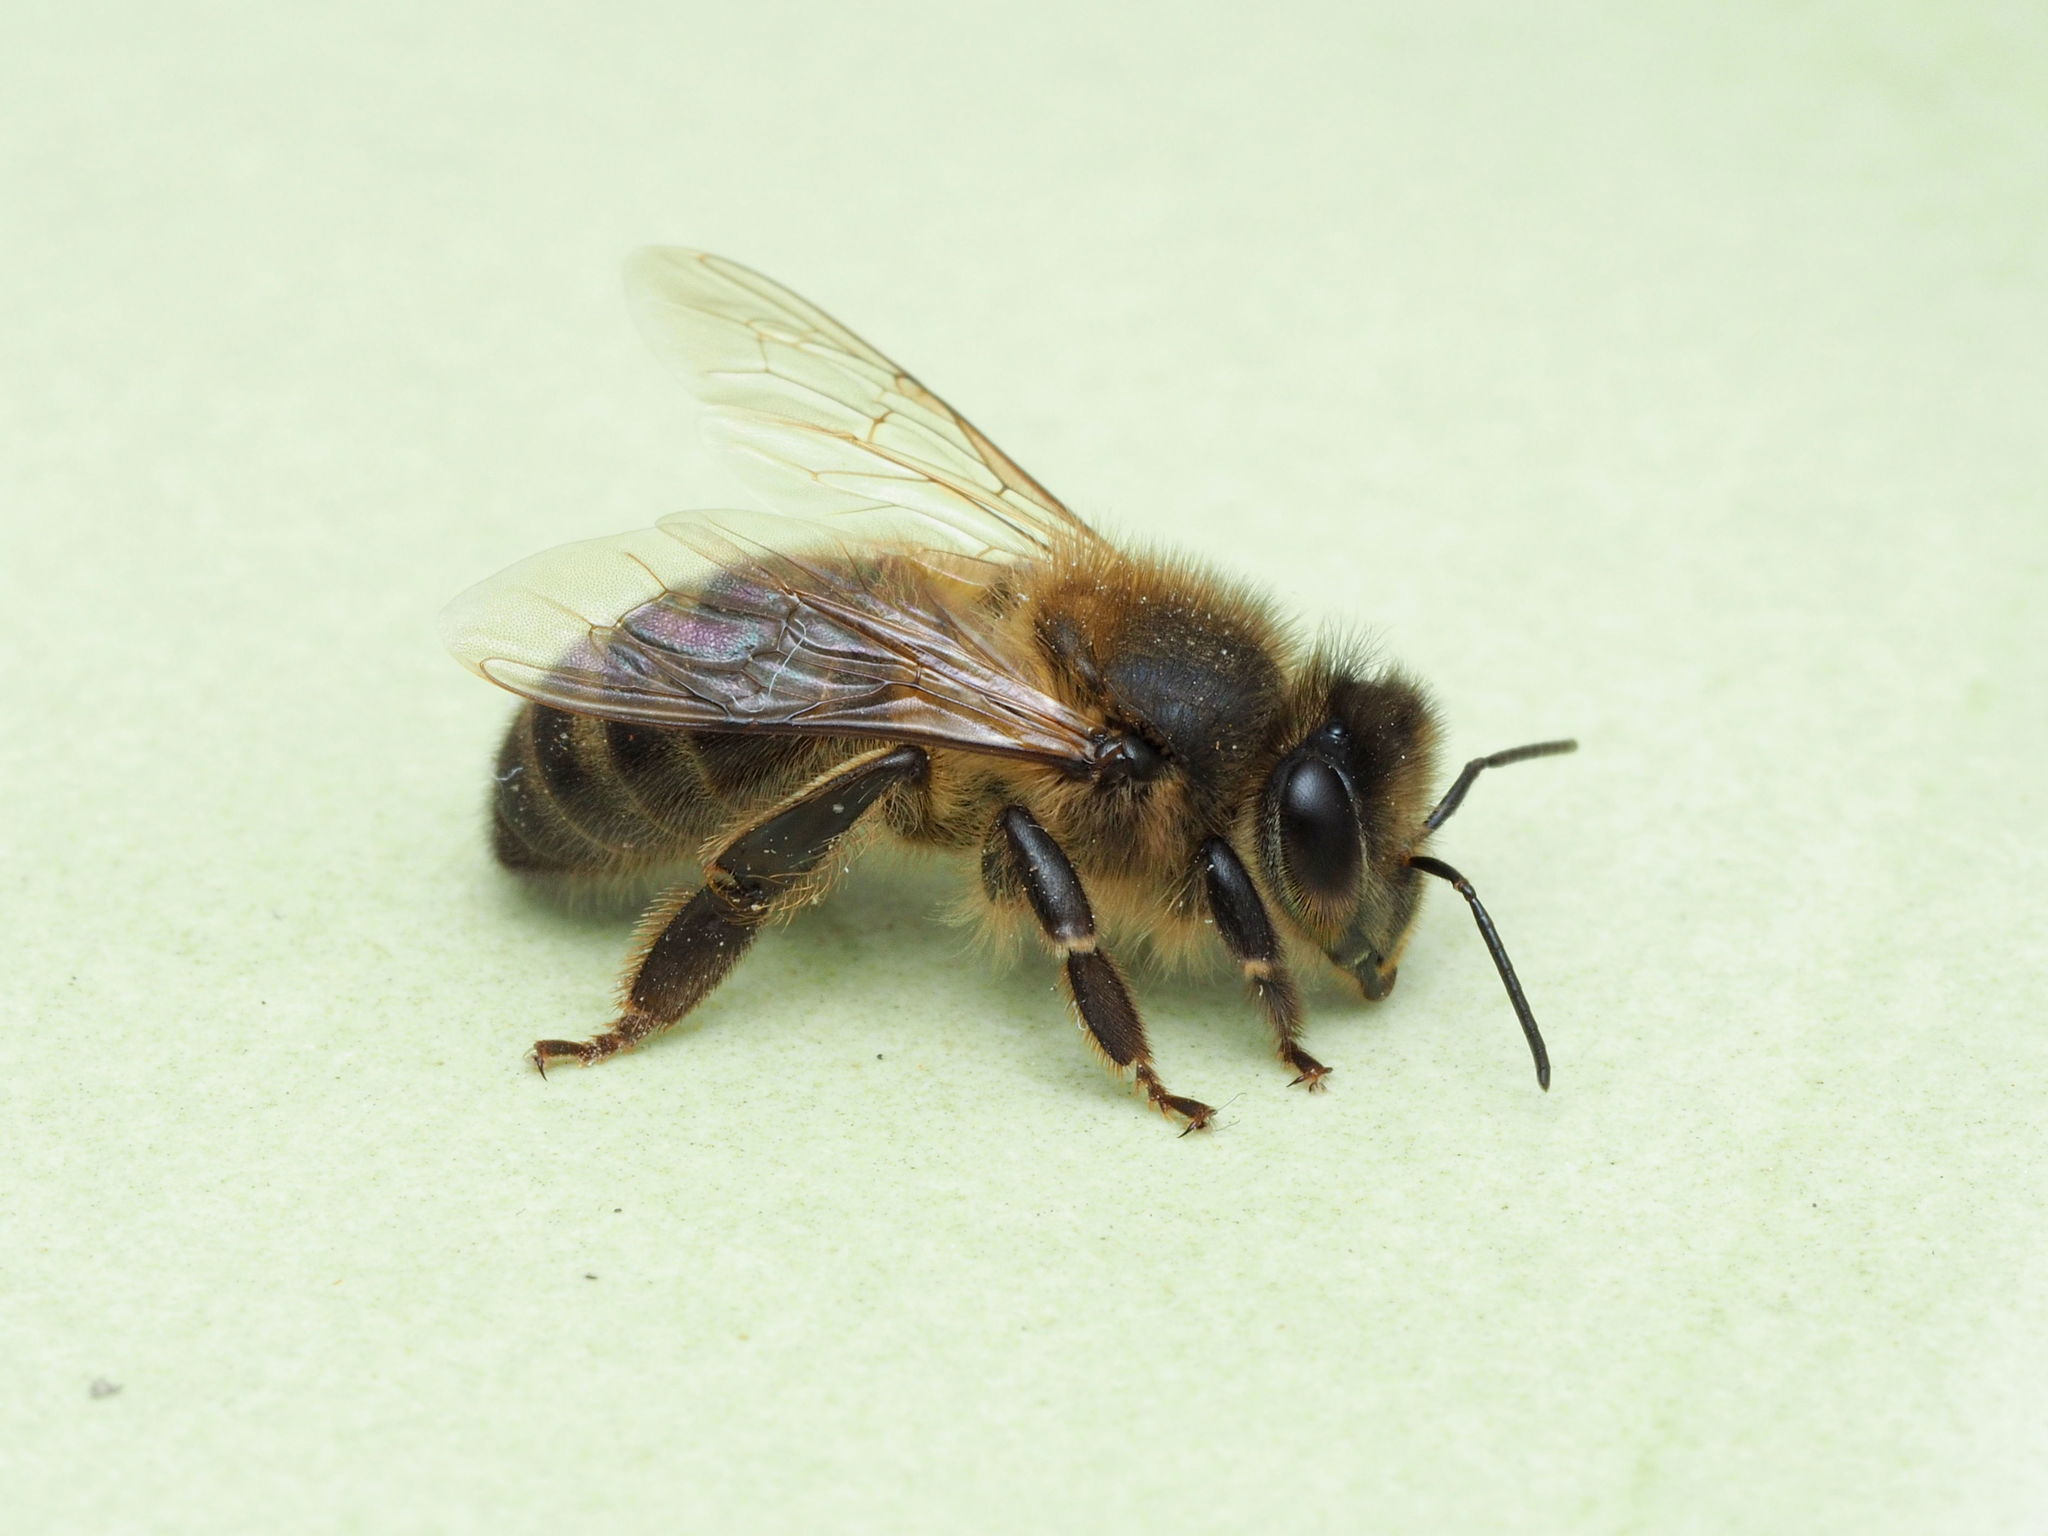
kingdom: Animalia
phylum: Arthropoda
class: Insecta
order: Hymenoptera
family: Apidae
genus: Apis
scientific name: Apis mellifera
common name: Honey bee
